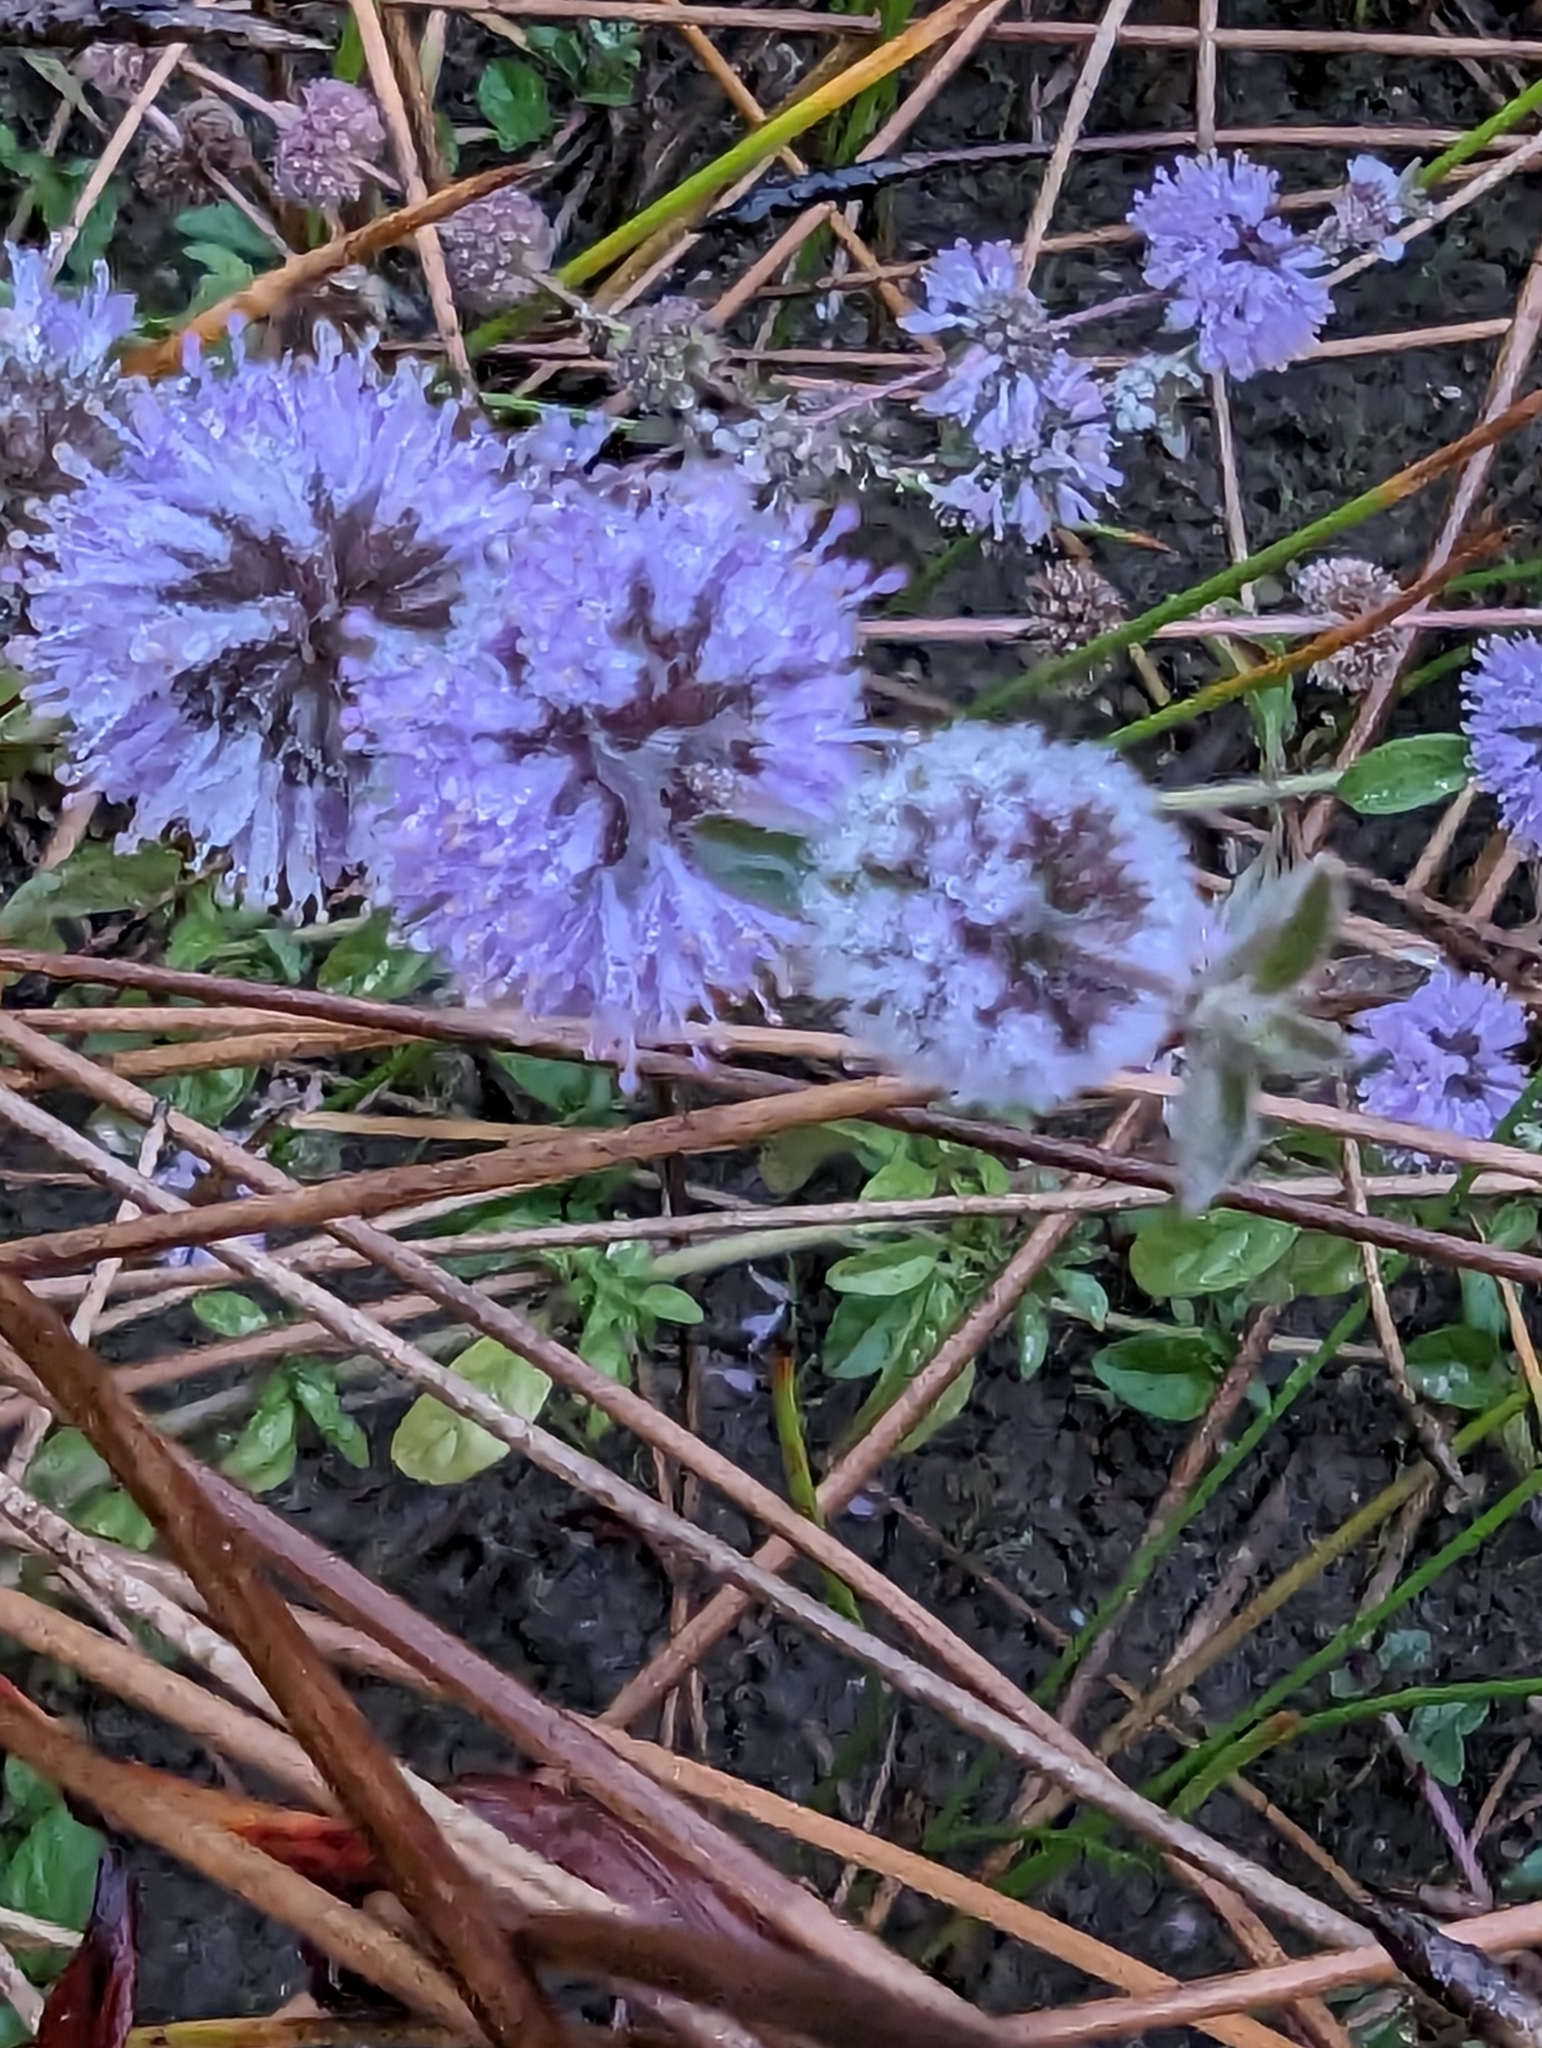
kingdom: Plantae
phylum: Tracheophyta
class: Magnoliopsida
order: Lamiales
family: Lamiaceae
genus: Mentha
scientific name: Mentha pulegium
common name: Pennyroyal
